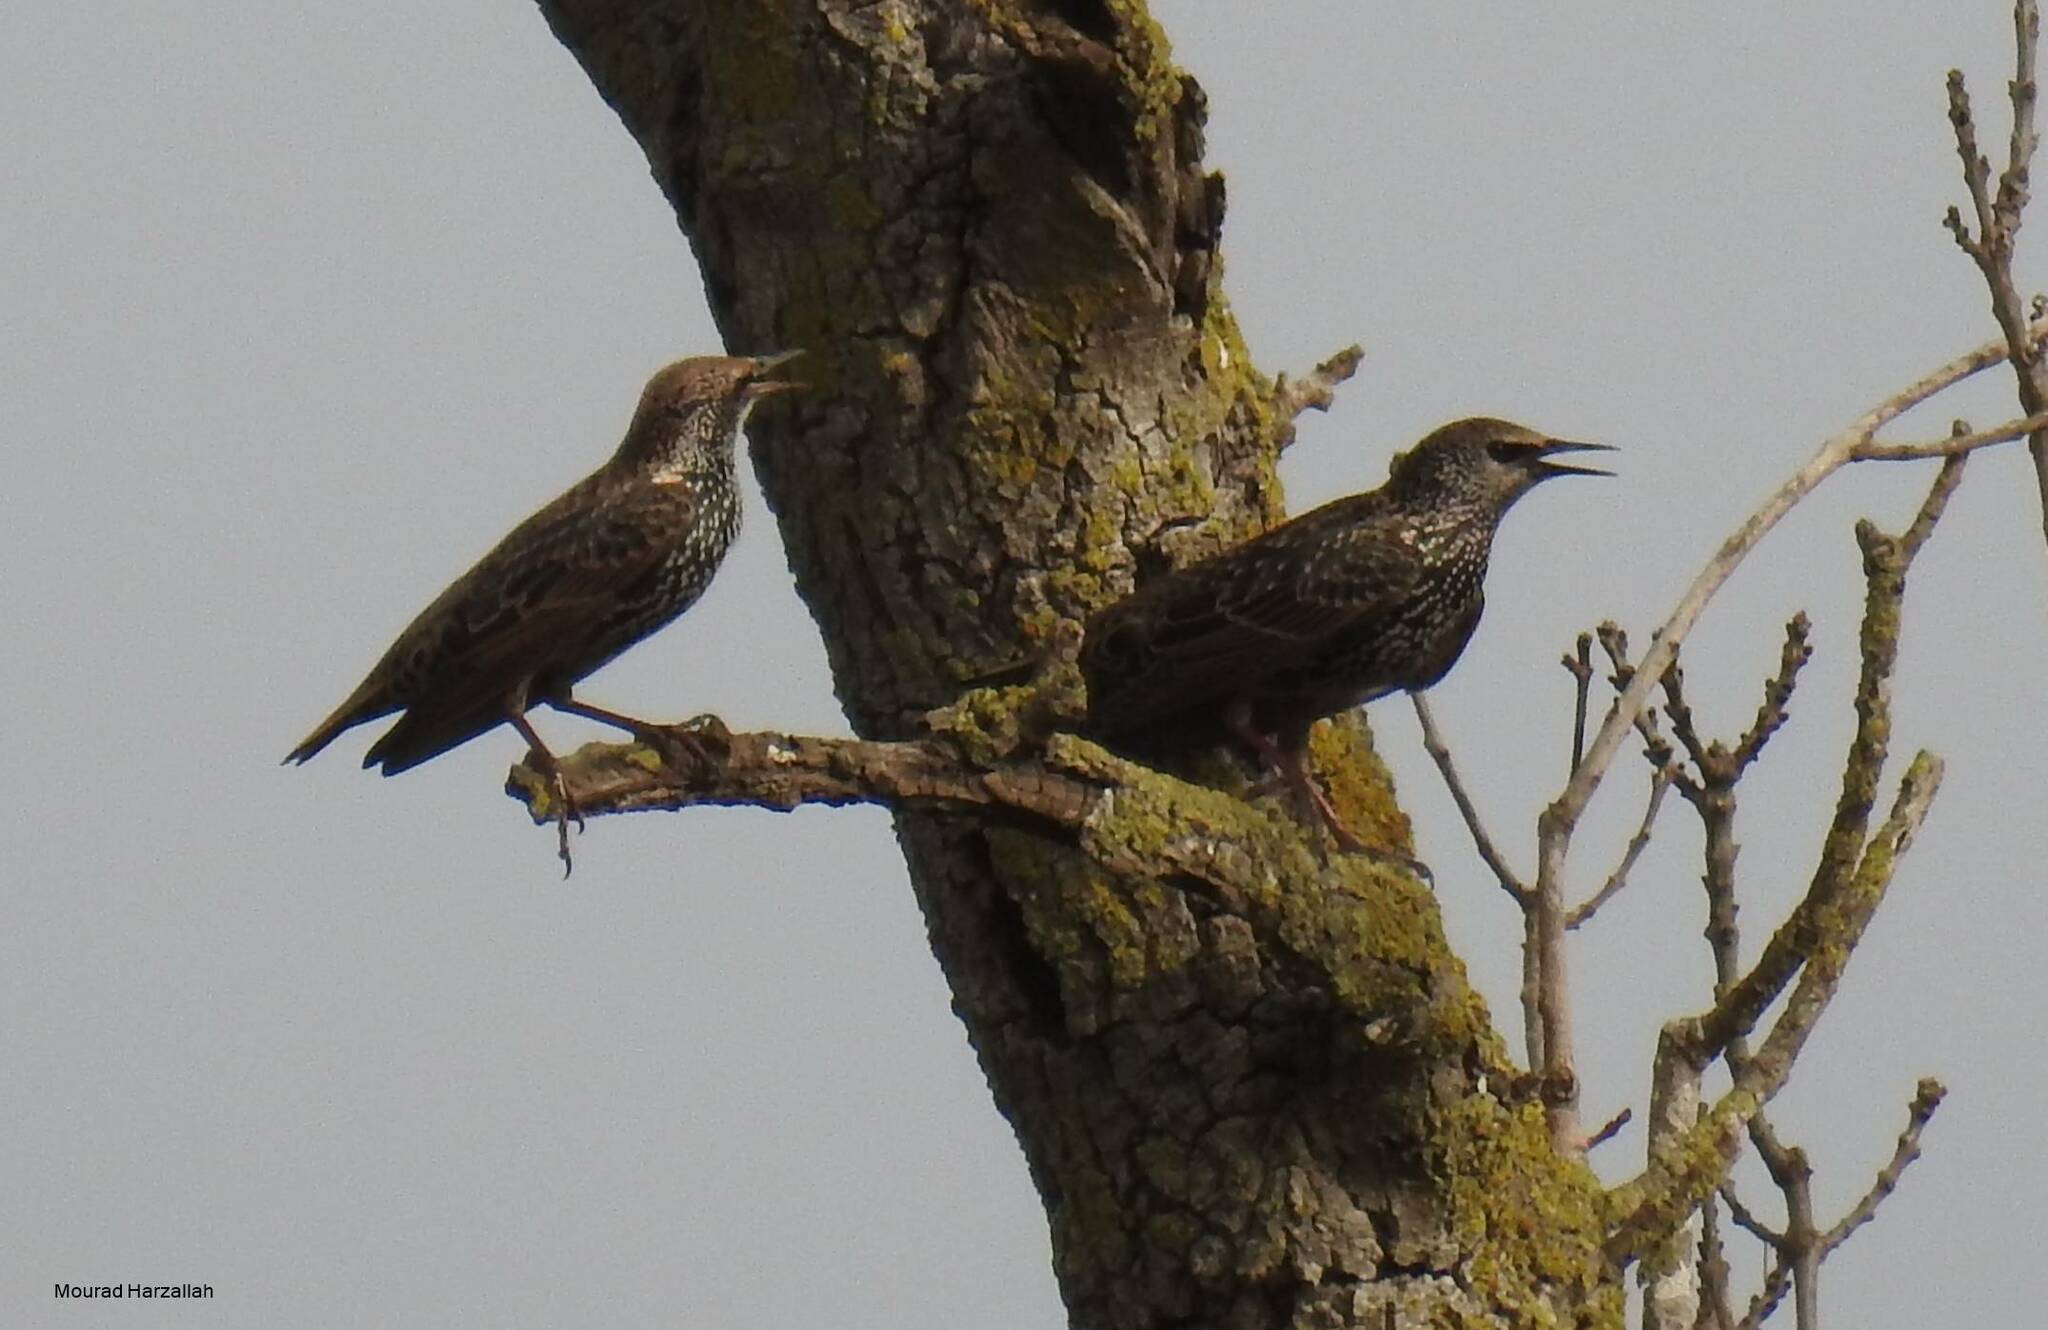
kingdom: Animalia
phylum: Chordata
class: Aves
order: Passeriformes
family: Sturnidae
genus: Sturnus
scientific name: Sturnus vulgaris
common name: Common starling
